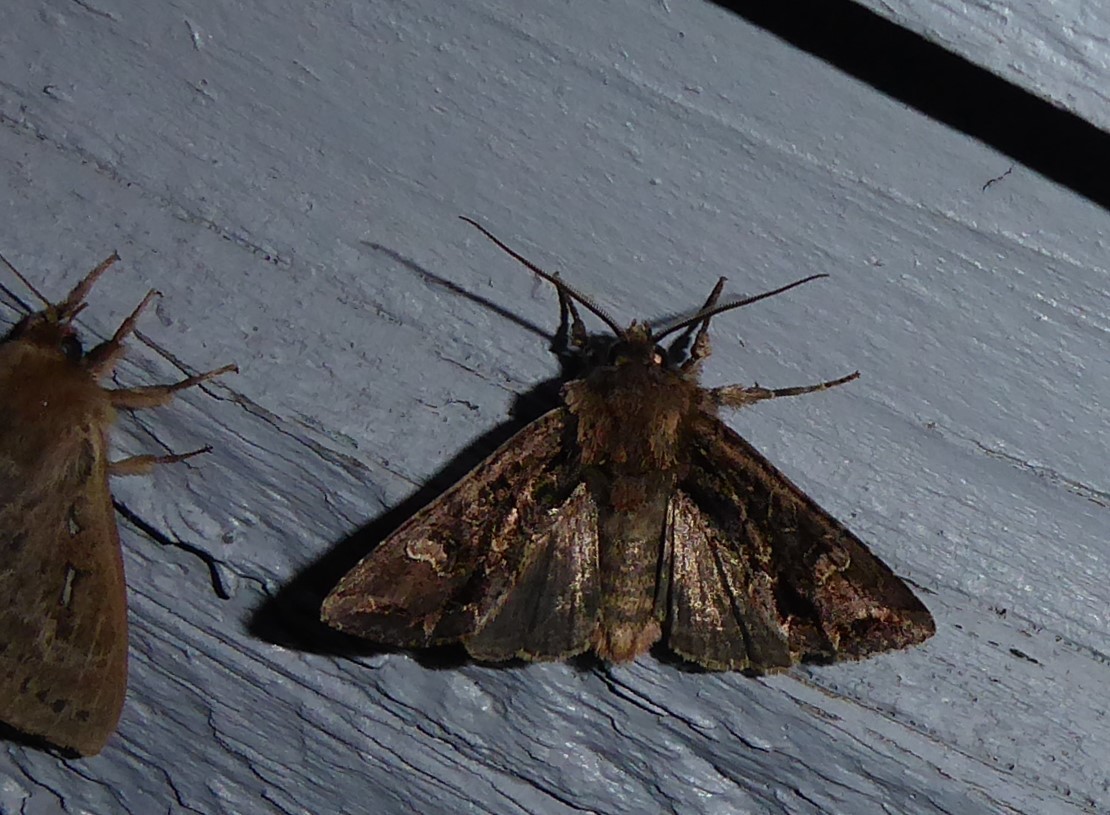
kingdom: Animalia
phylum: Arthropoda
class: Insecta
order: Lepidoptera
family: Noctuidae
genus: Ichneutica
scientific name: Ichneutica insignis
